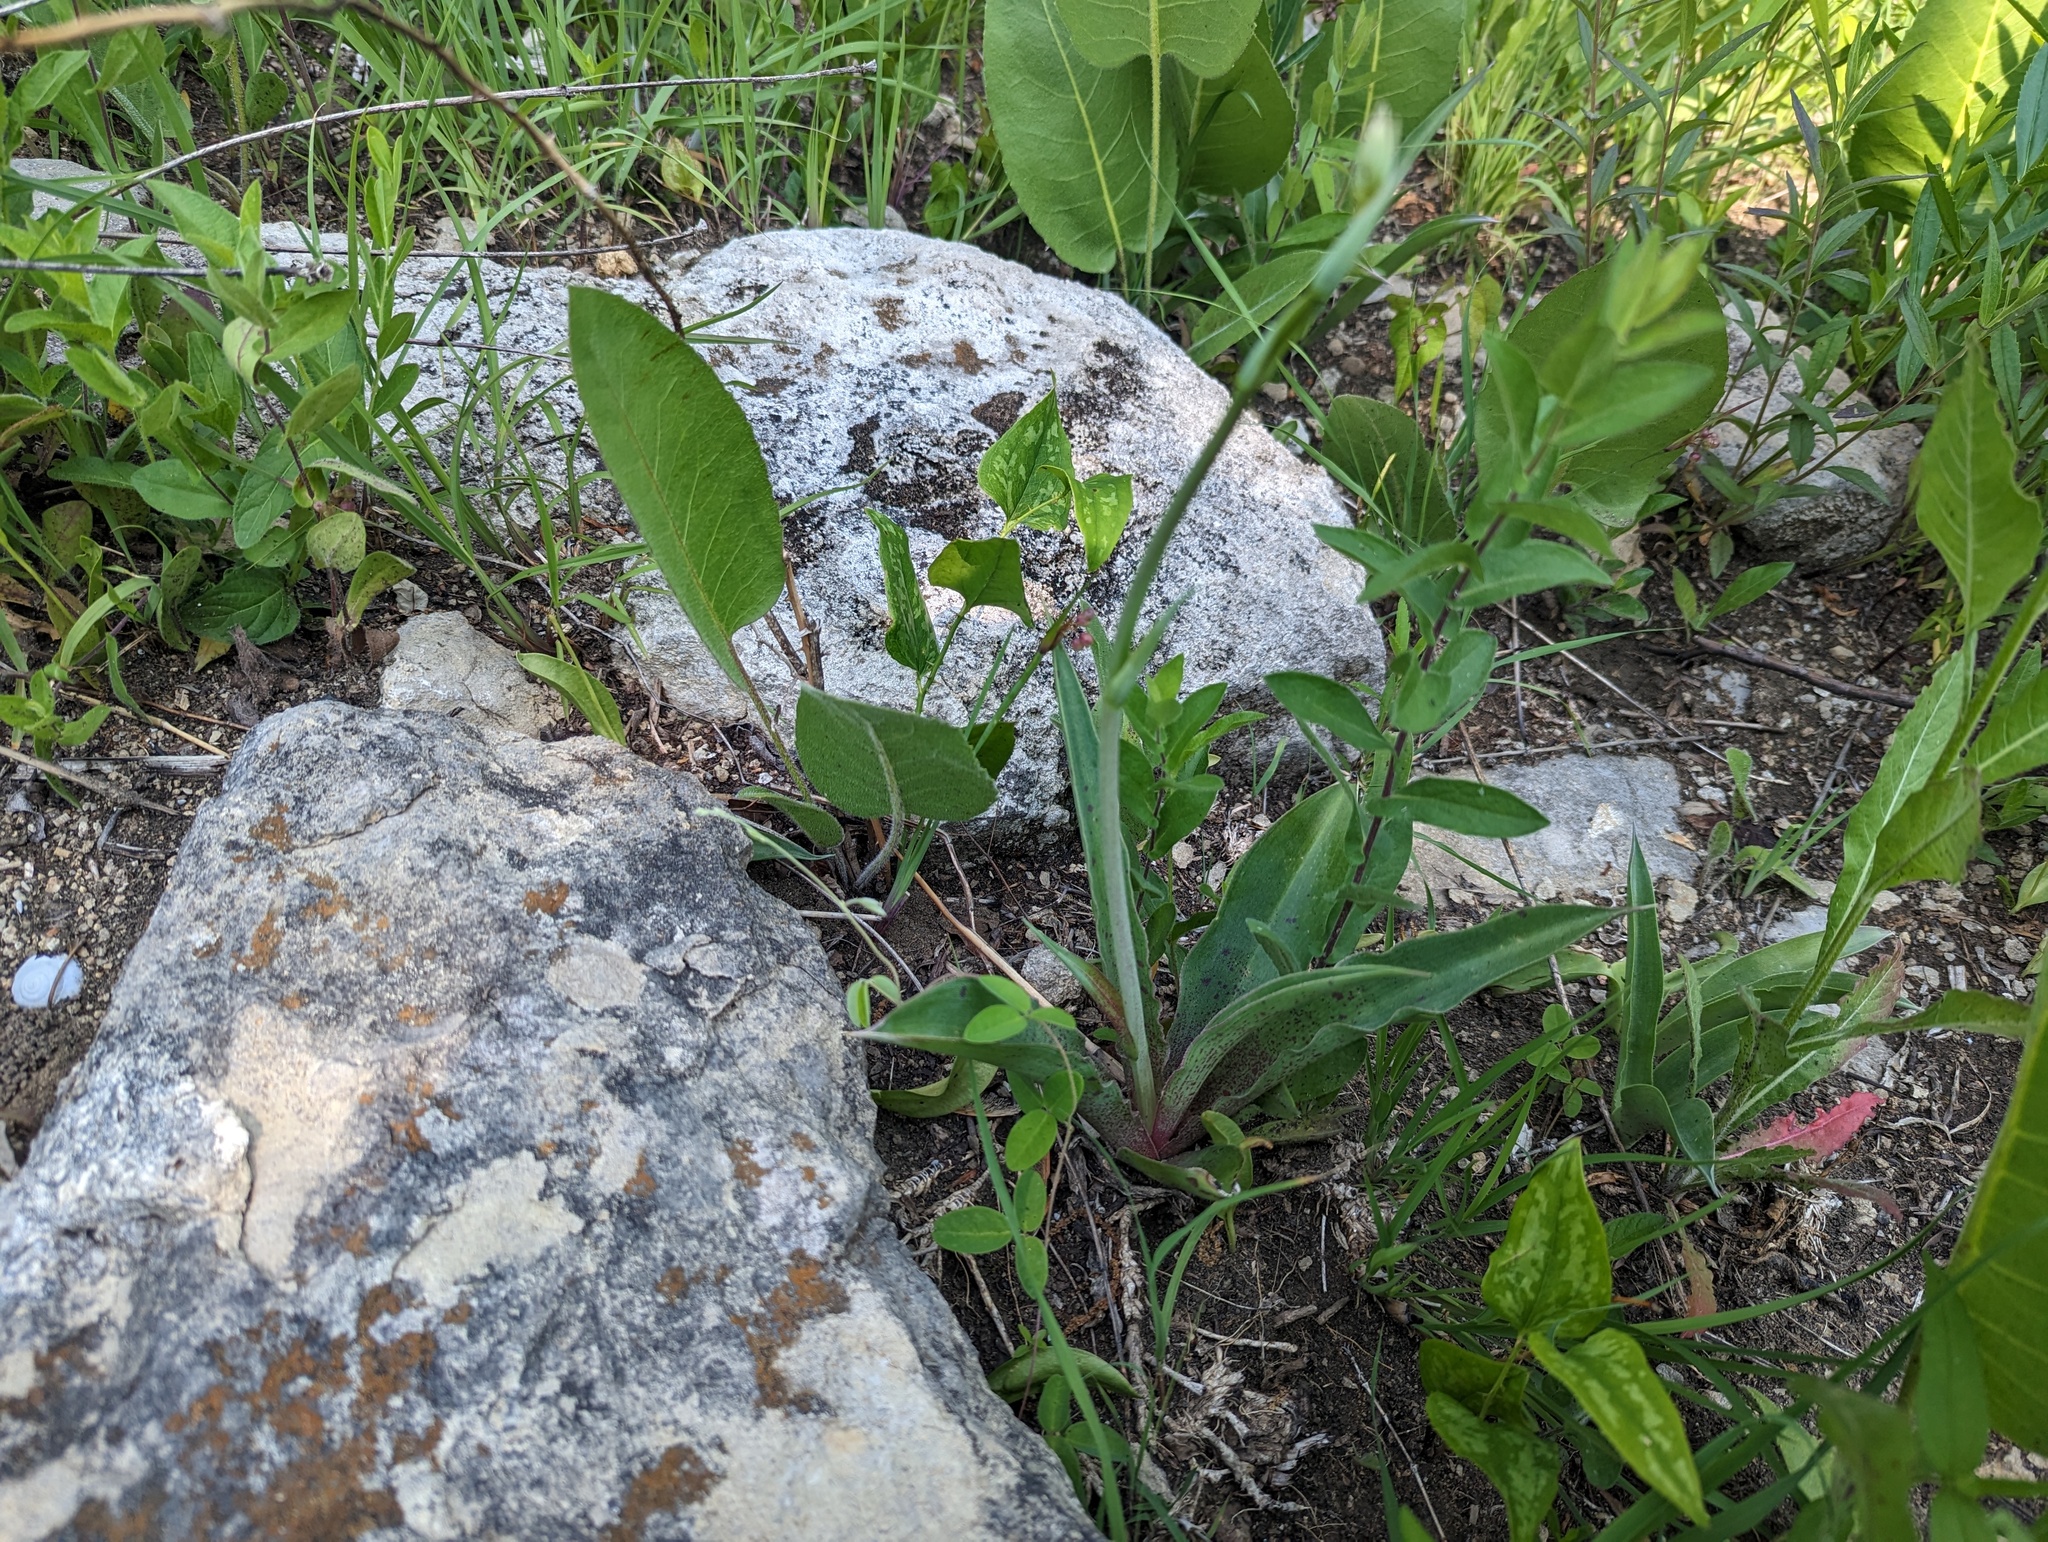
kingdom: Plantae
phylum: Tracheophyta
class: Liliopsida
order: Asparagales
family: Asparagaceae
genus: Agave
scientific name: Agave virginica
